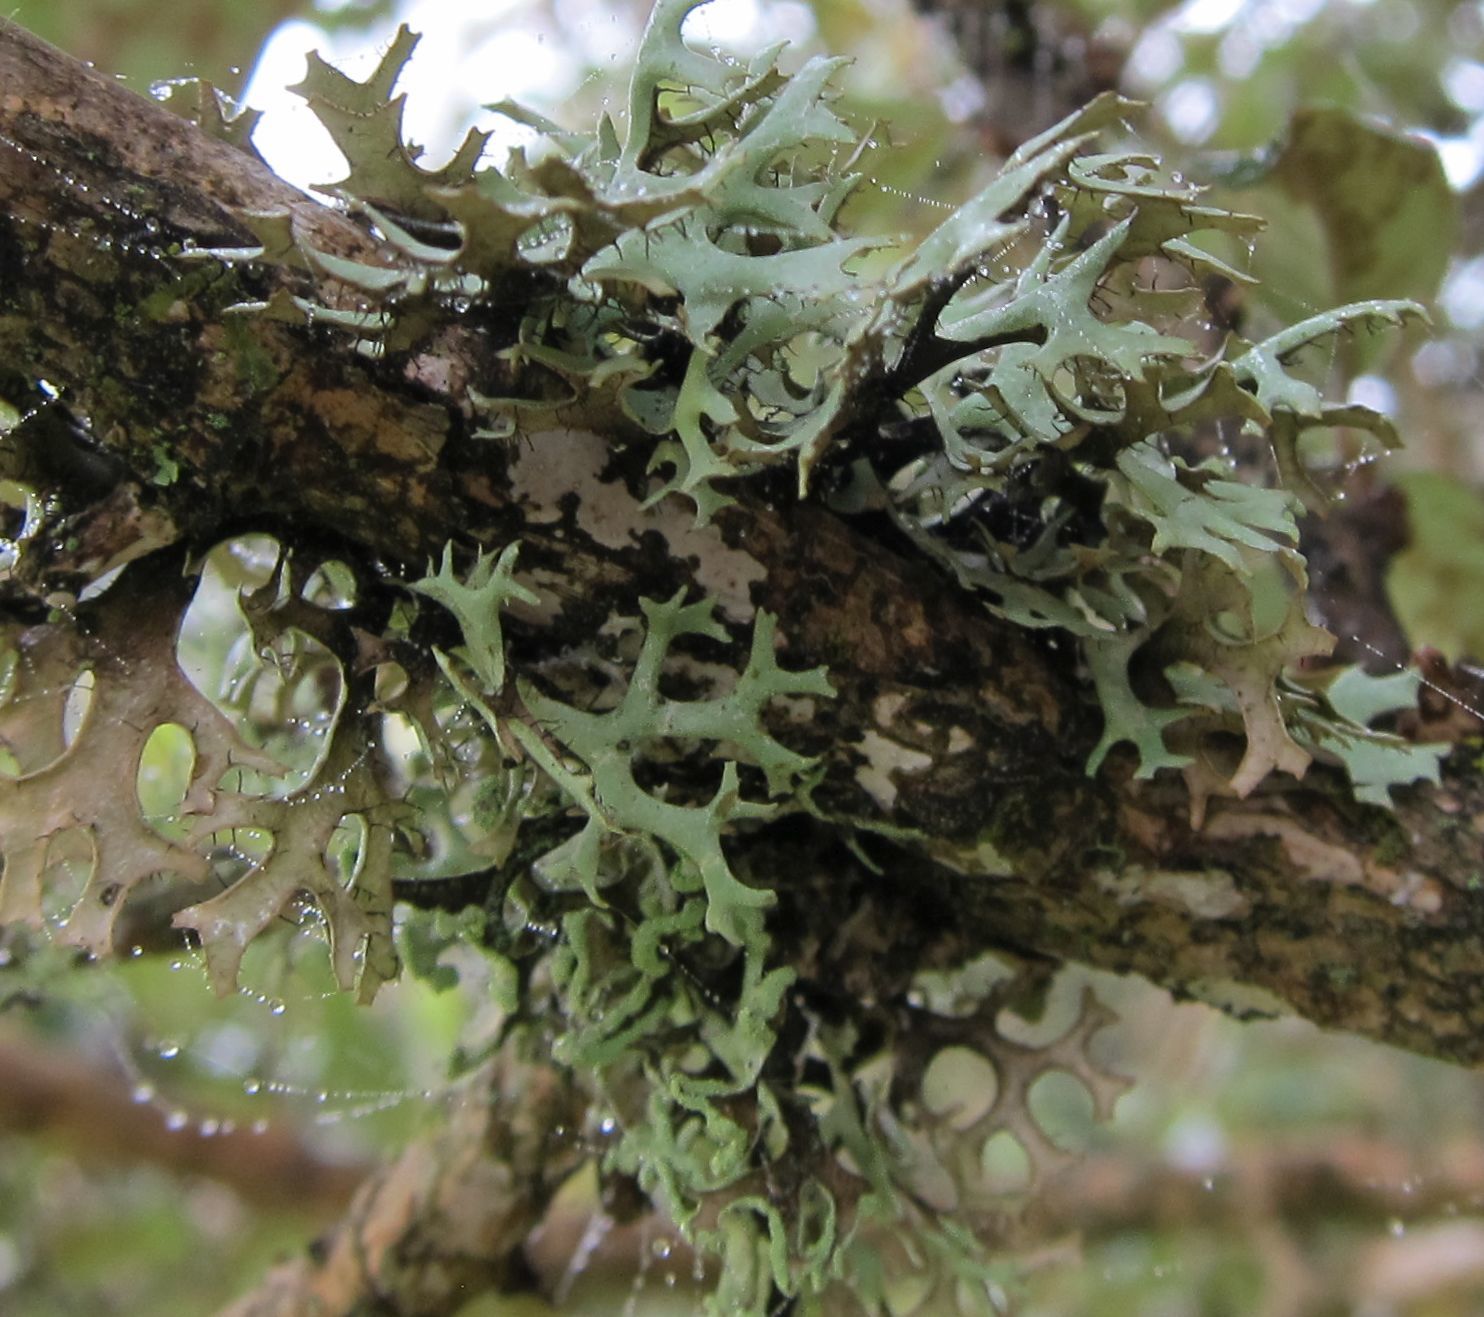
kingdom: Fungi
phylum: Ascomycota
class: Lecanoromycetes
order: Lecanorales
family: Parmeliaceae
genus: Hypotrachyna
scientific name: Hypotrachyna sorocheila
